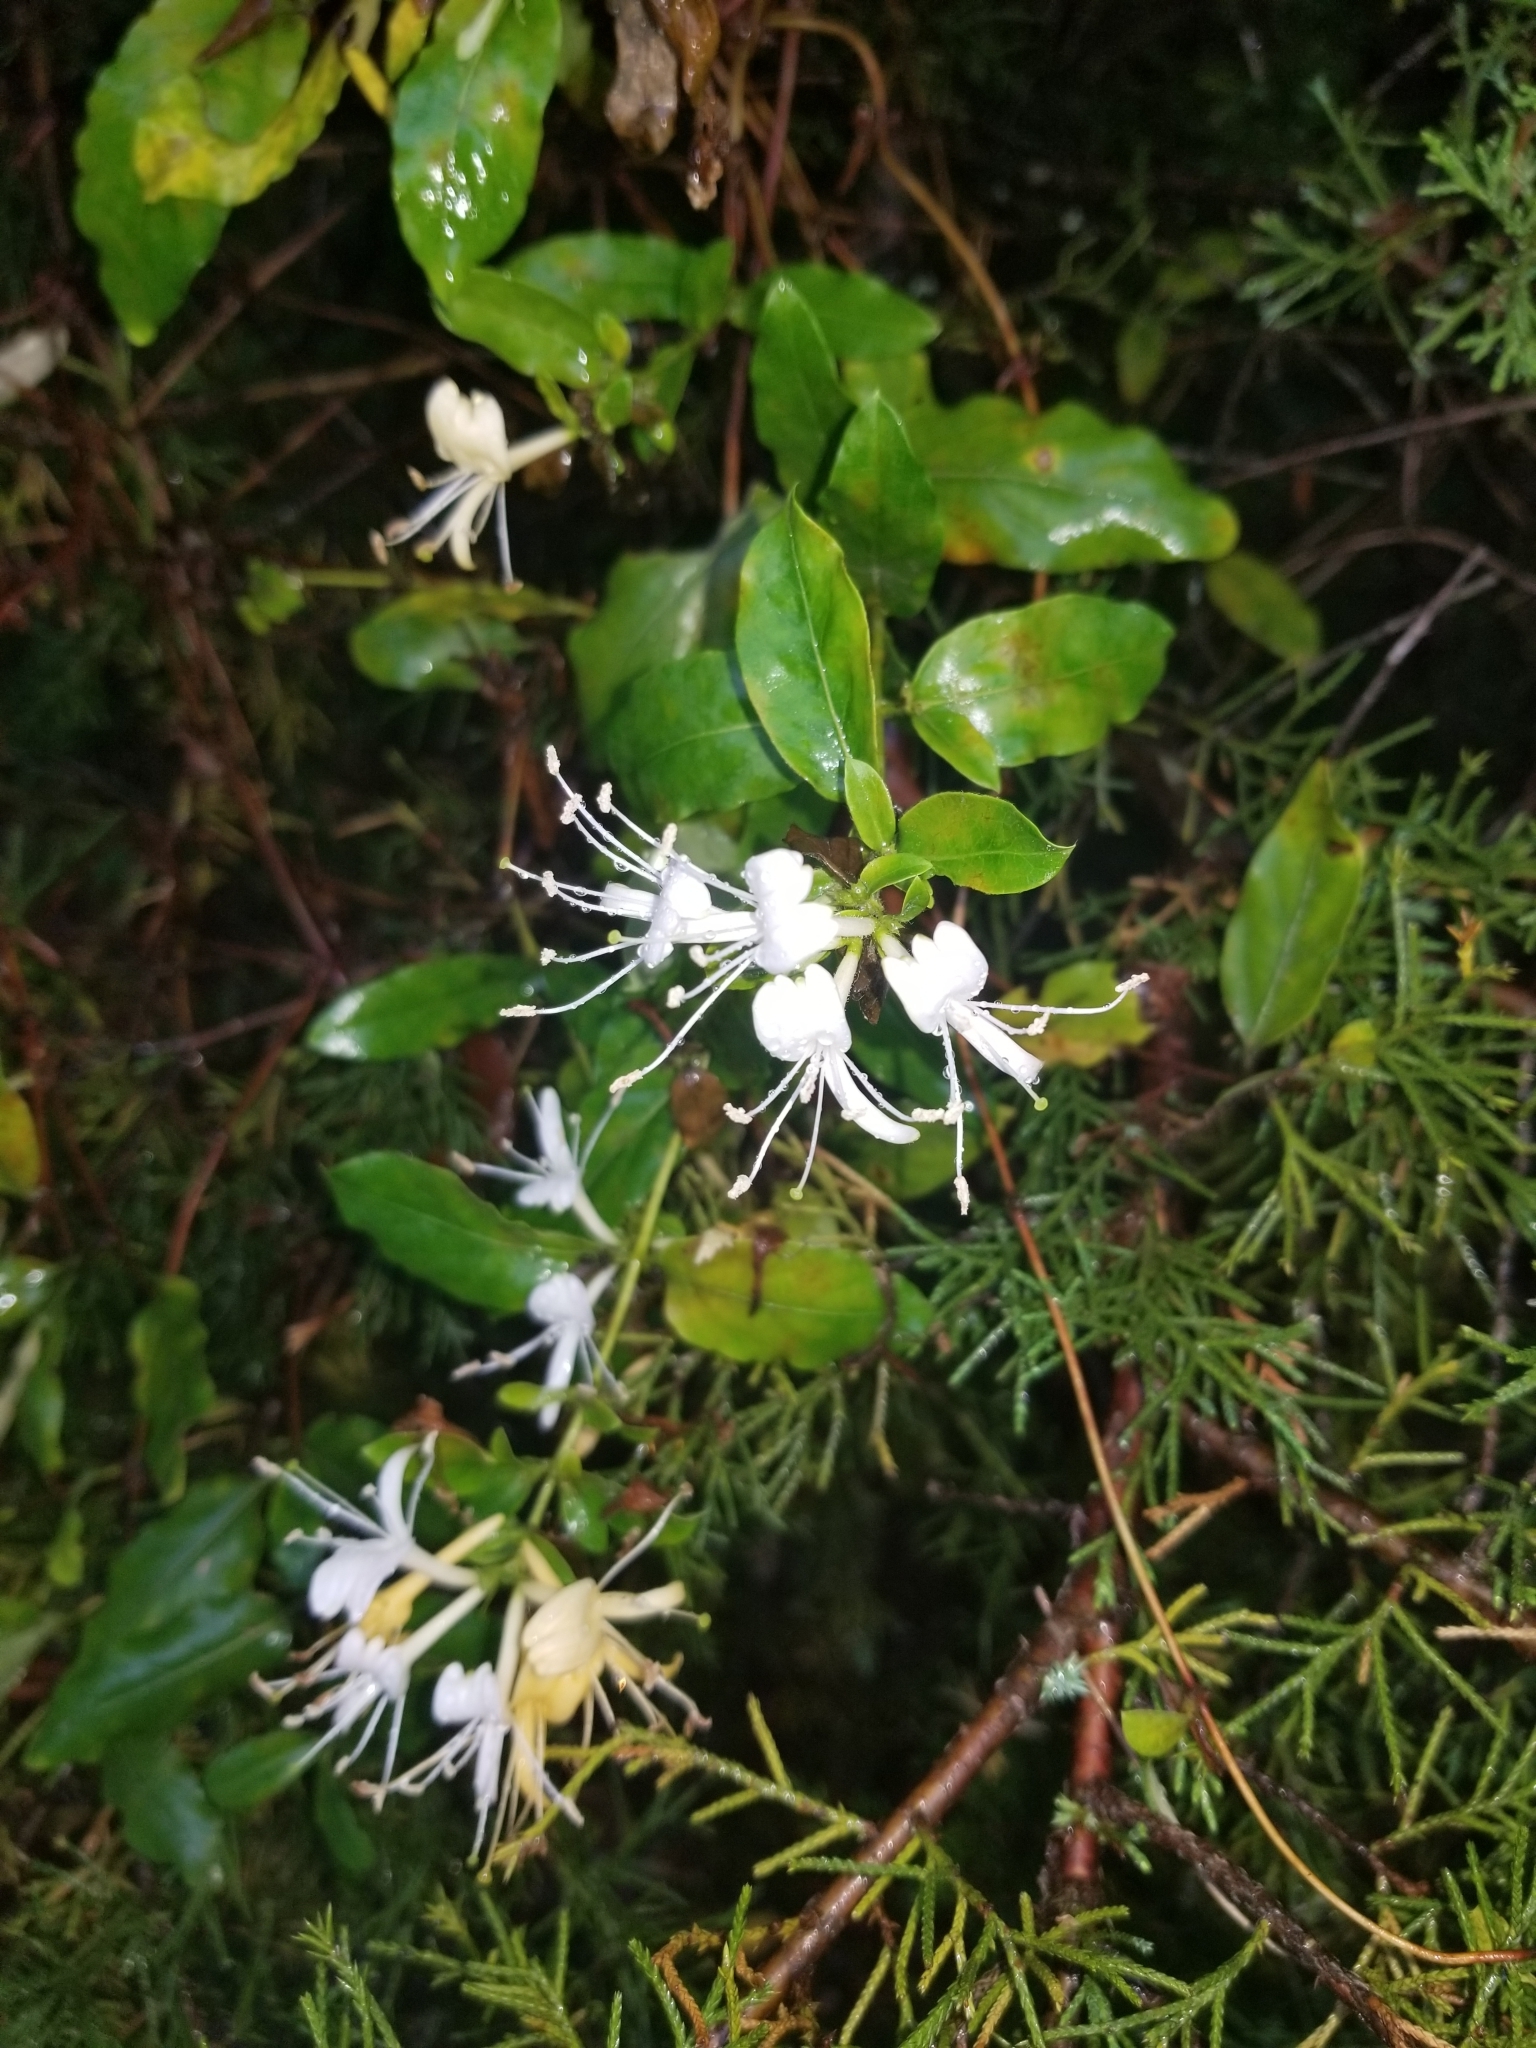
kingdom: Plantae
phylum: Tracheophyta
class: Magnoliopsida
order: Dipsacales
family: Caprifoliaceae
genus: Lonicera
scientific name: Lonicera japonica
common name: Japanese honeysuckle
